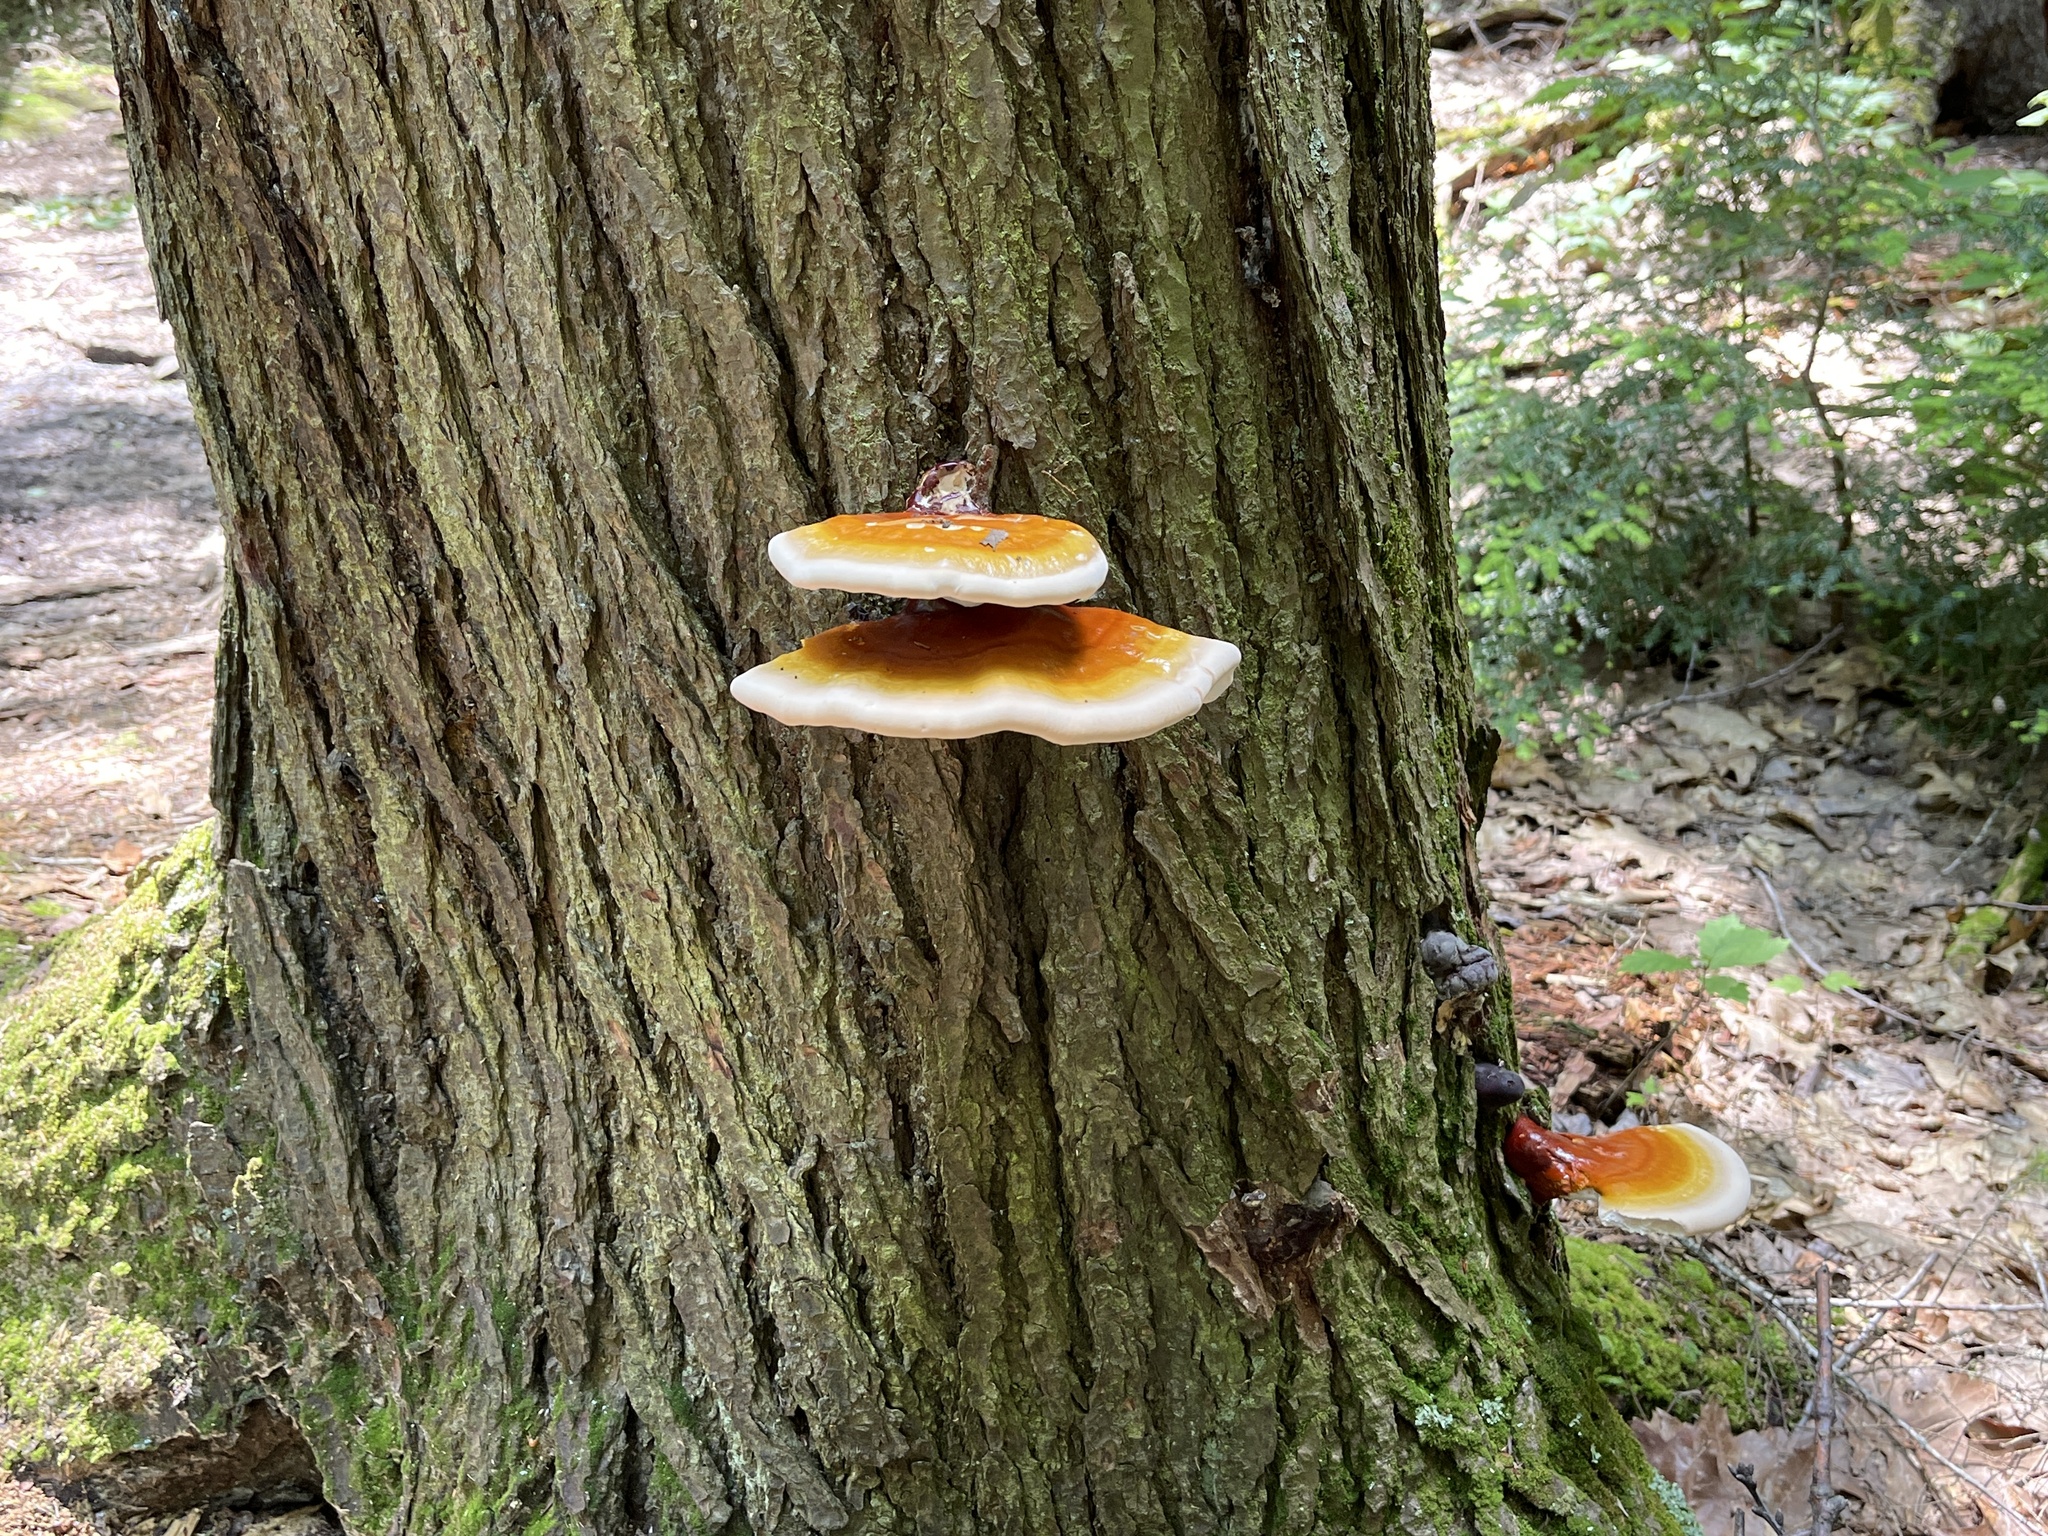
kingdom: Fungi
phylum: Basidiomycota
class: Agaricomycetes
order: Polyporales
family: Polyporaceae
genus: Ganoderma
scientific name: Ganoderma tsugae
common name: Hemlock varnish shelf
